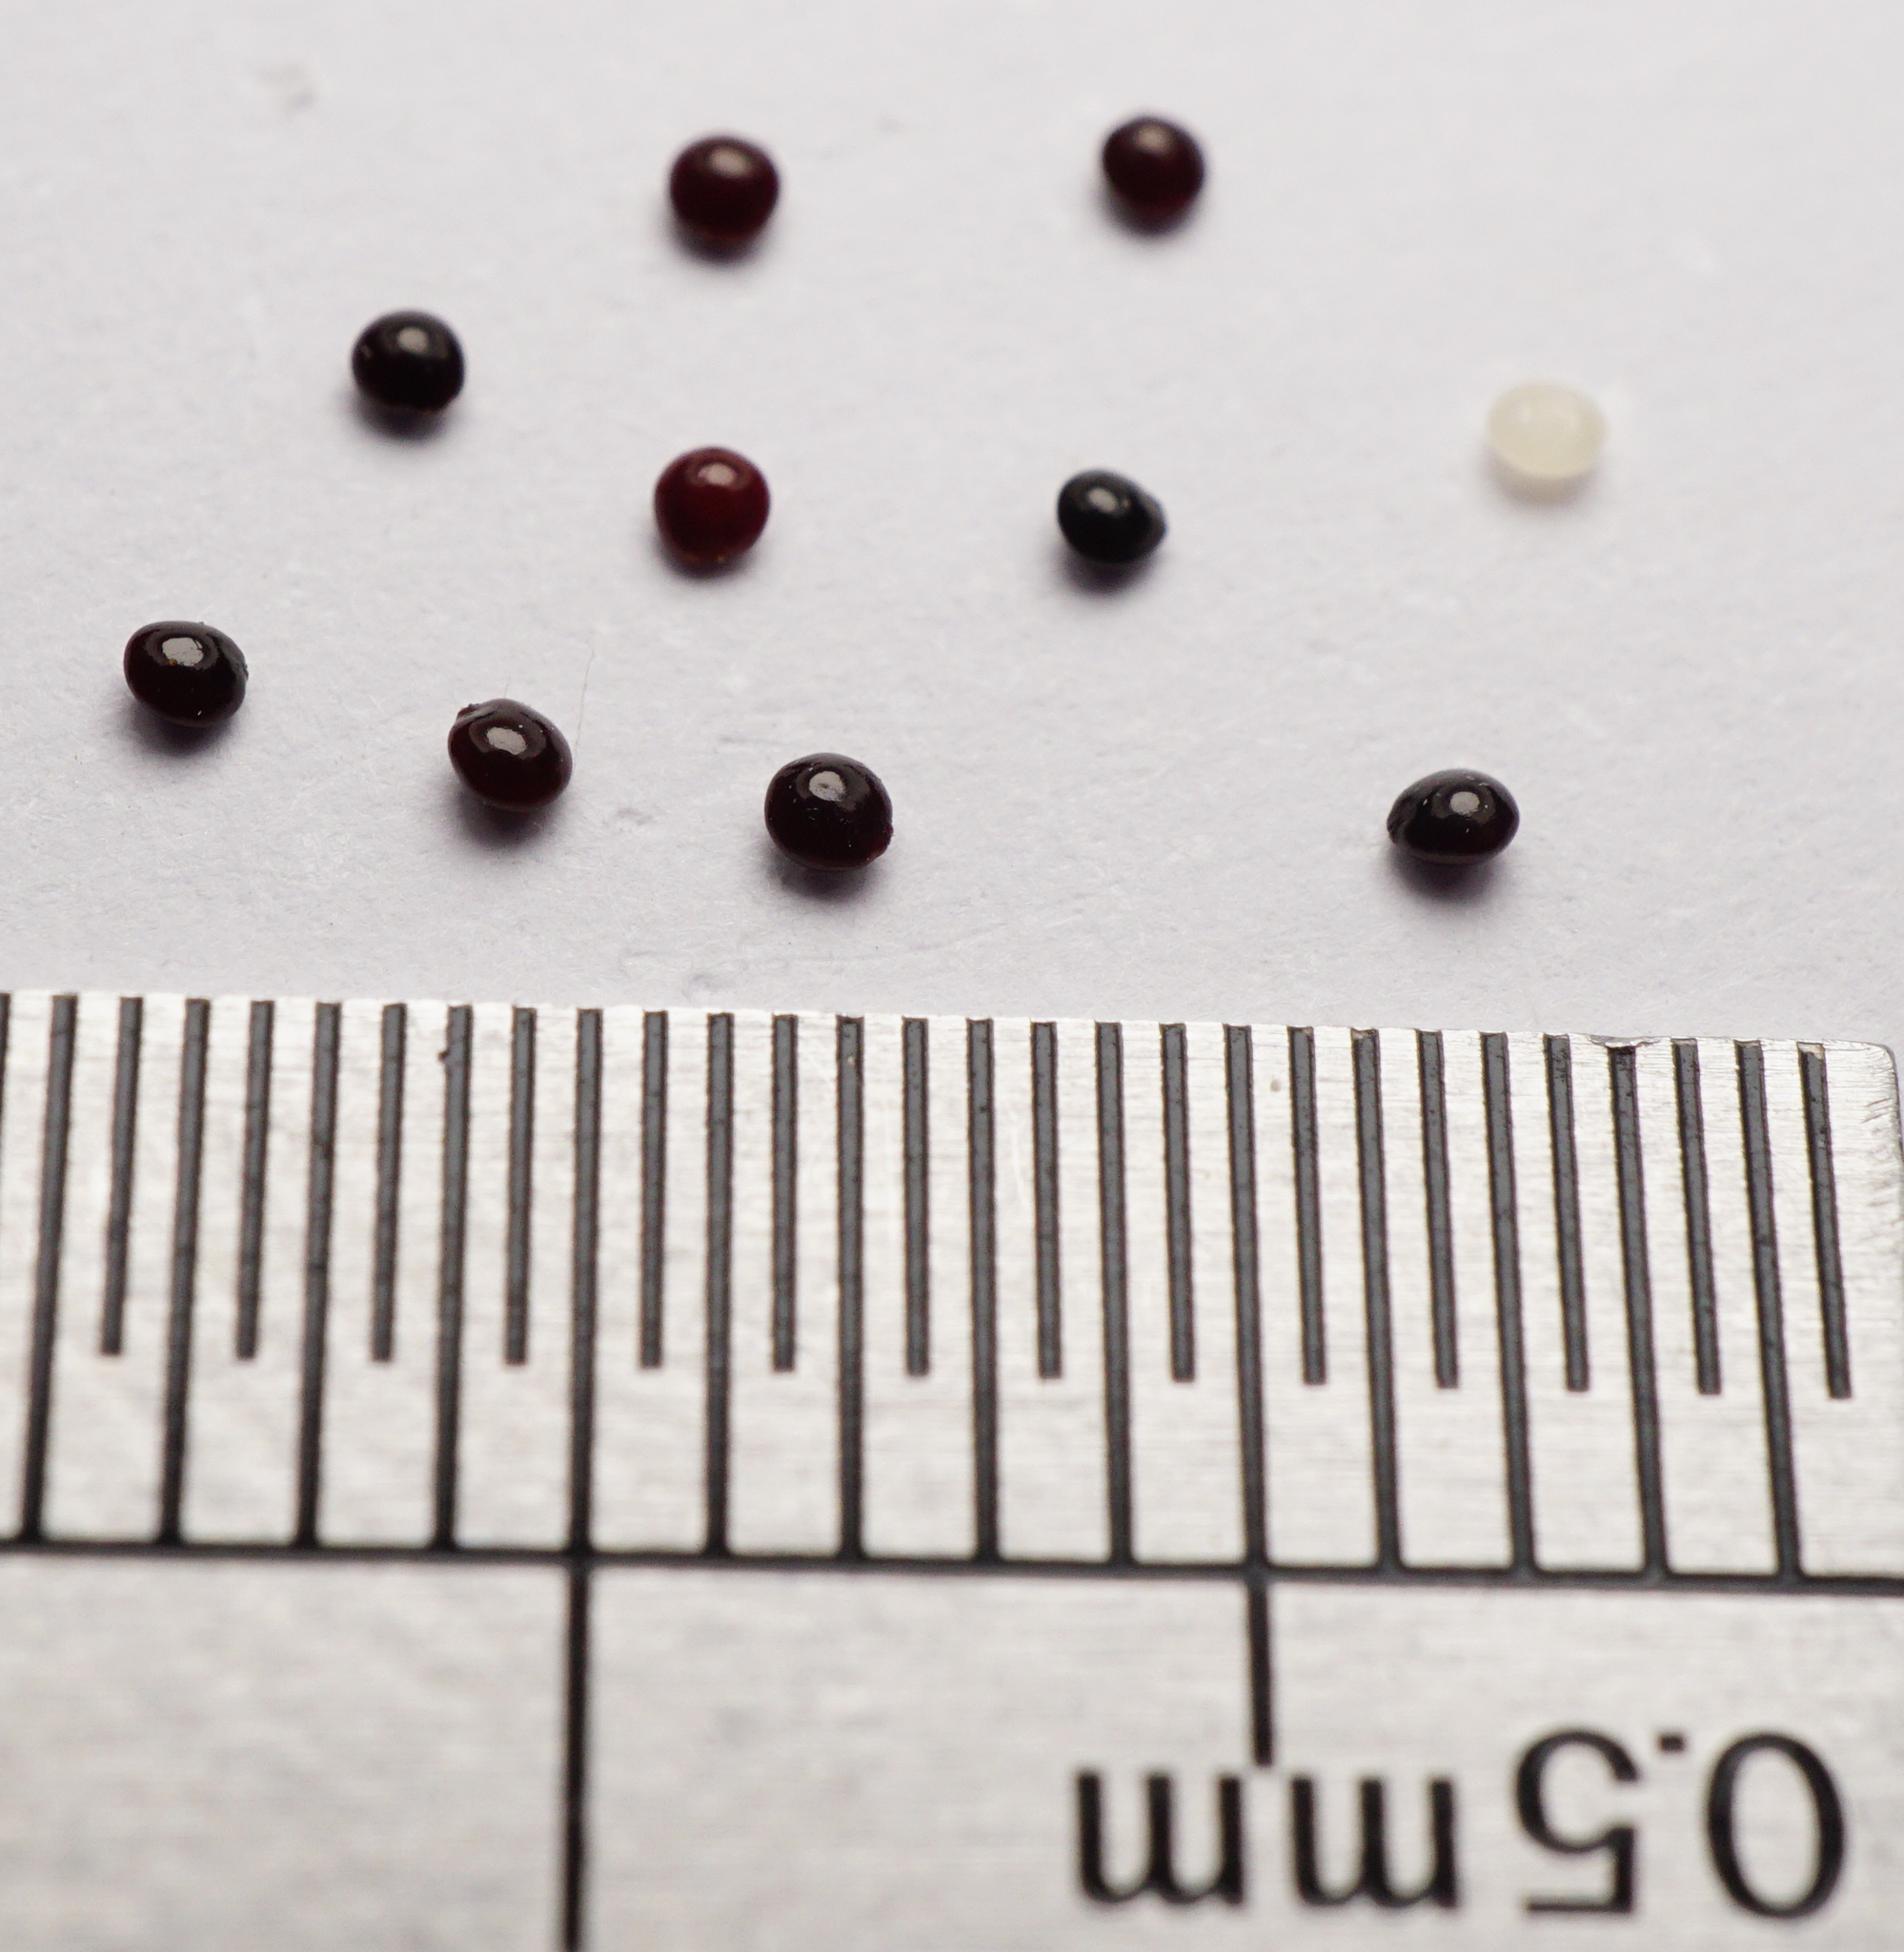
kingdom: Plantae
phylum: Tracheophyta
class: Magnoliopsida
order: Caryophyllales
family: Amaranthaceae
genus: Amaranthus
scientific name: Amaranthus albus
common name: White pigweed
